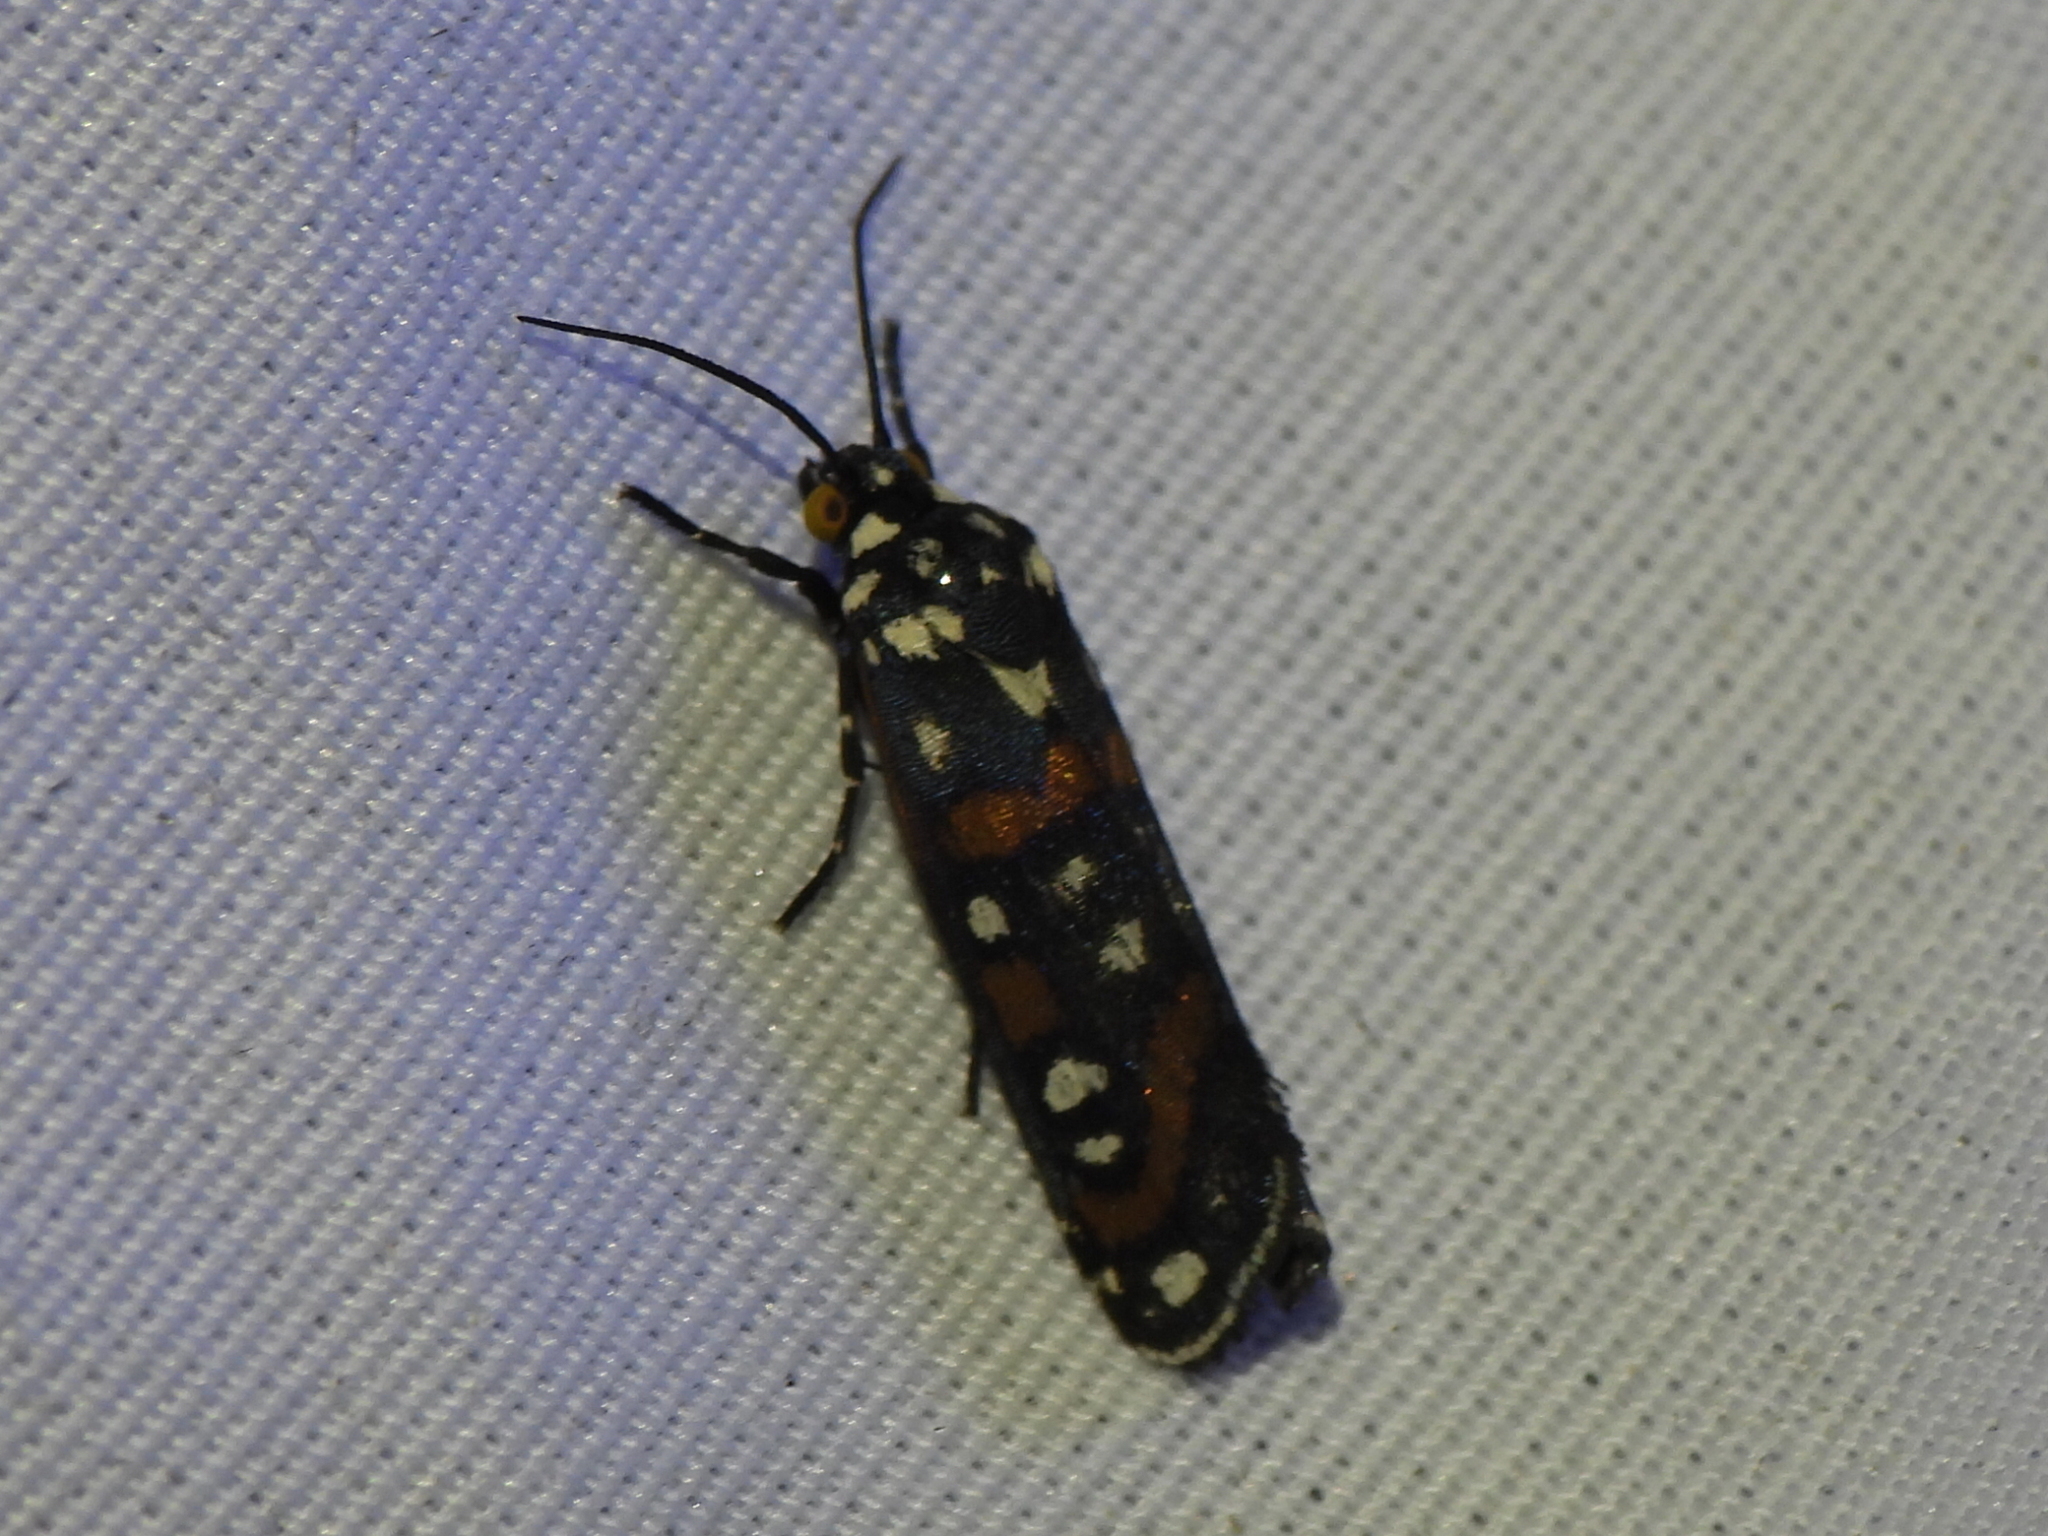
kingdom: Animalia
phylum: Arthropoda
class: Insecta
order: Lepidoptera
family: Noctuidae
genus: Cydosia
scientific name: Cydosia aurivitta
